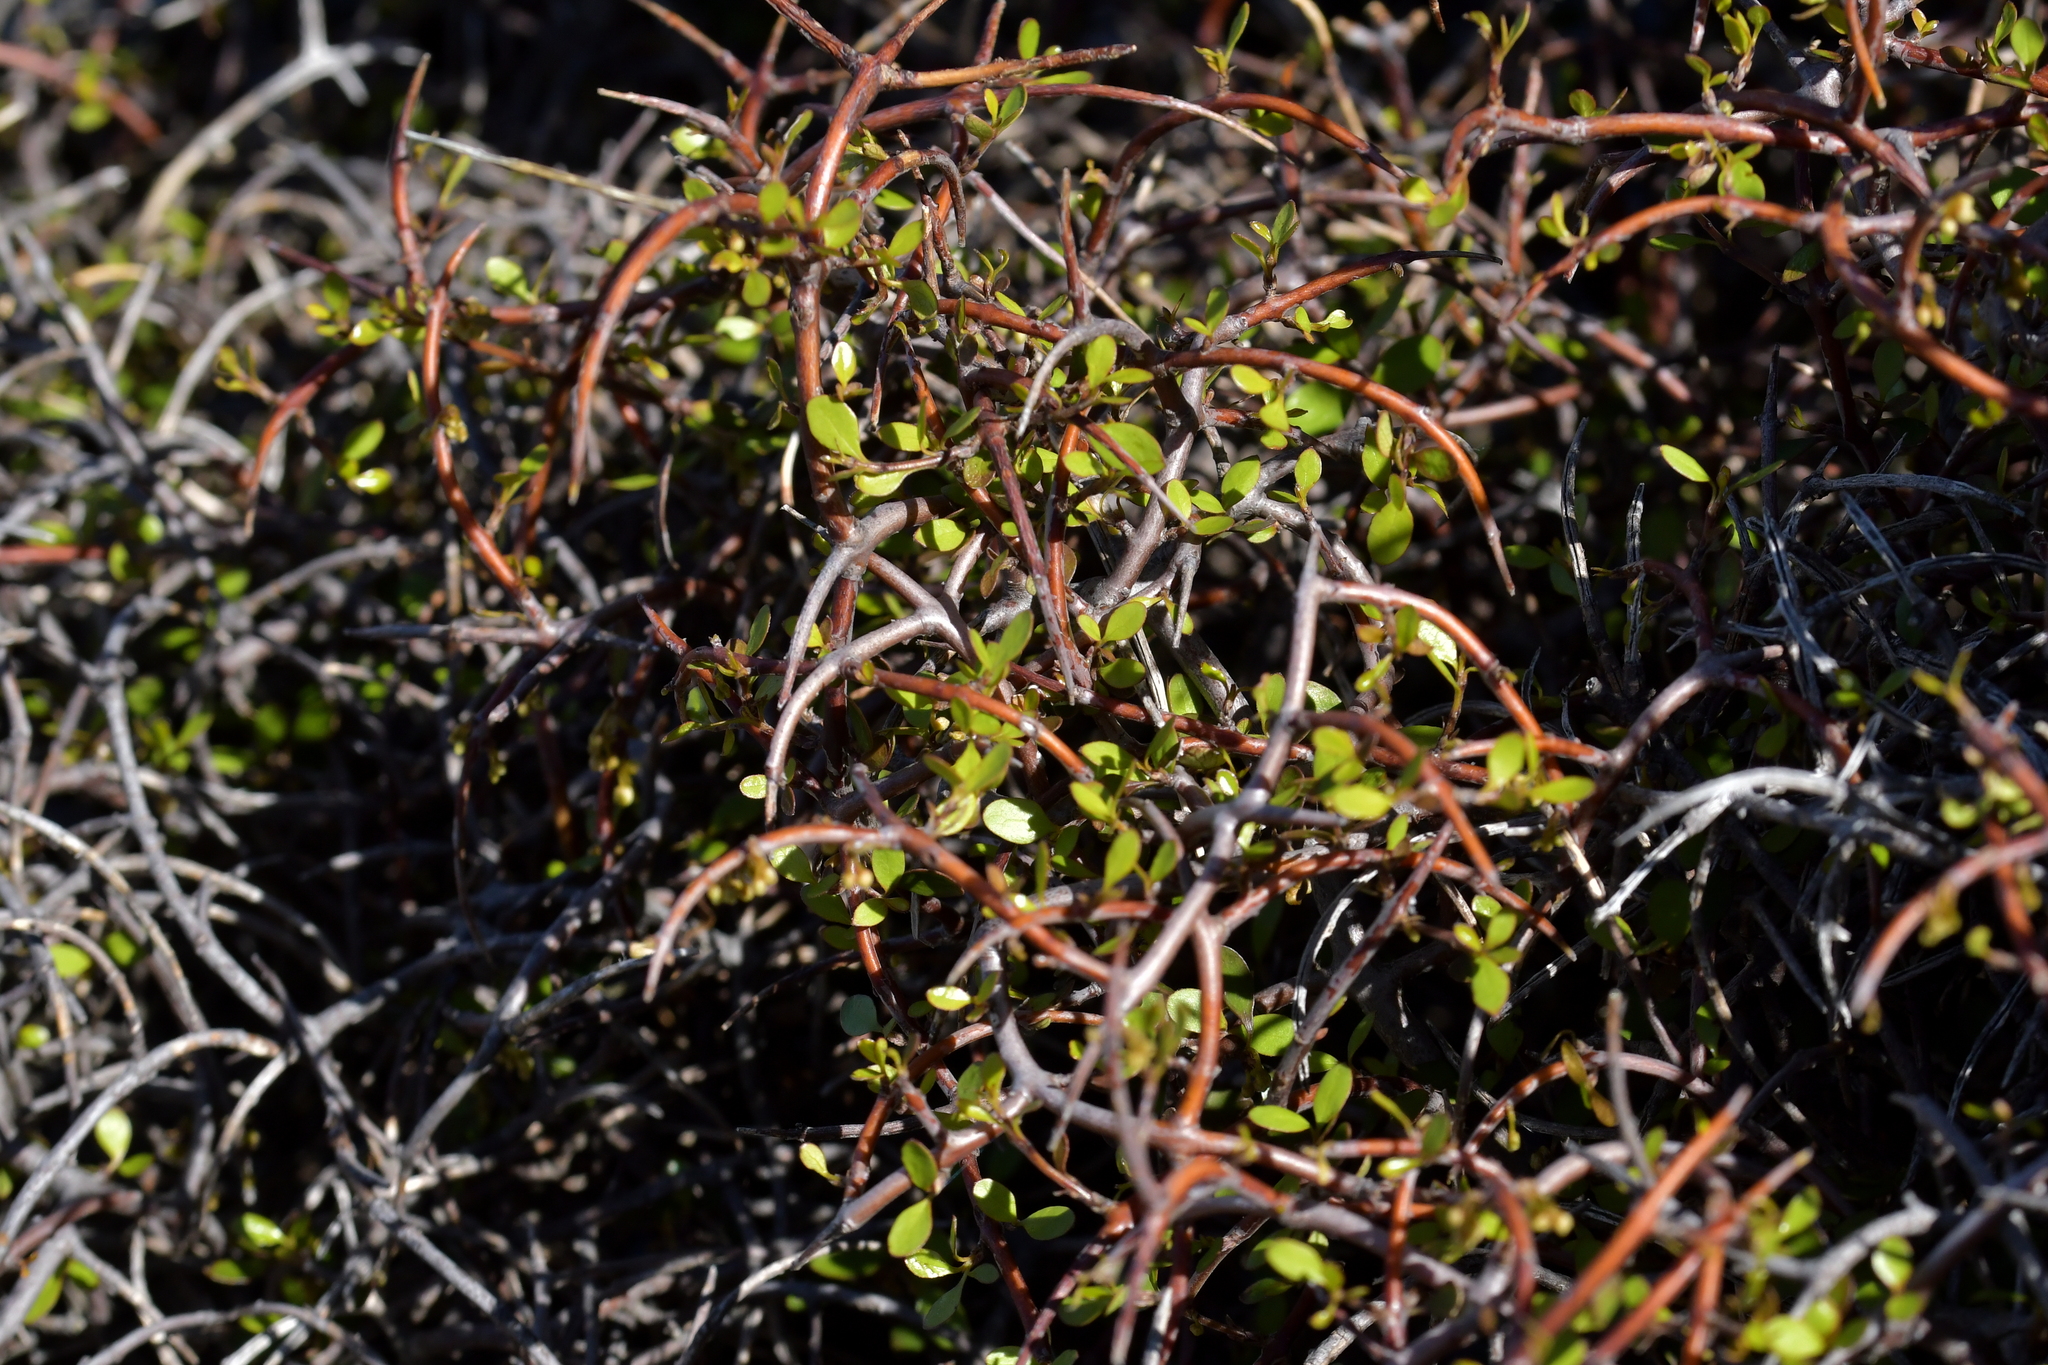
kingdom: Plantae
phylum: Tracheophyta
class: Magnoliopsida
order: Gentianales
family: Rubiaceae
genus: Coprosma
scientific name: Coprosma rigida
